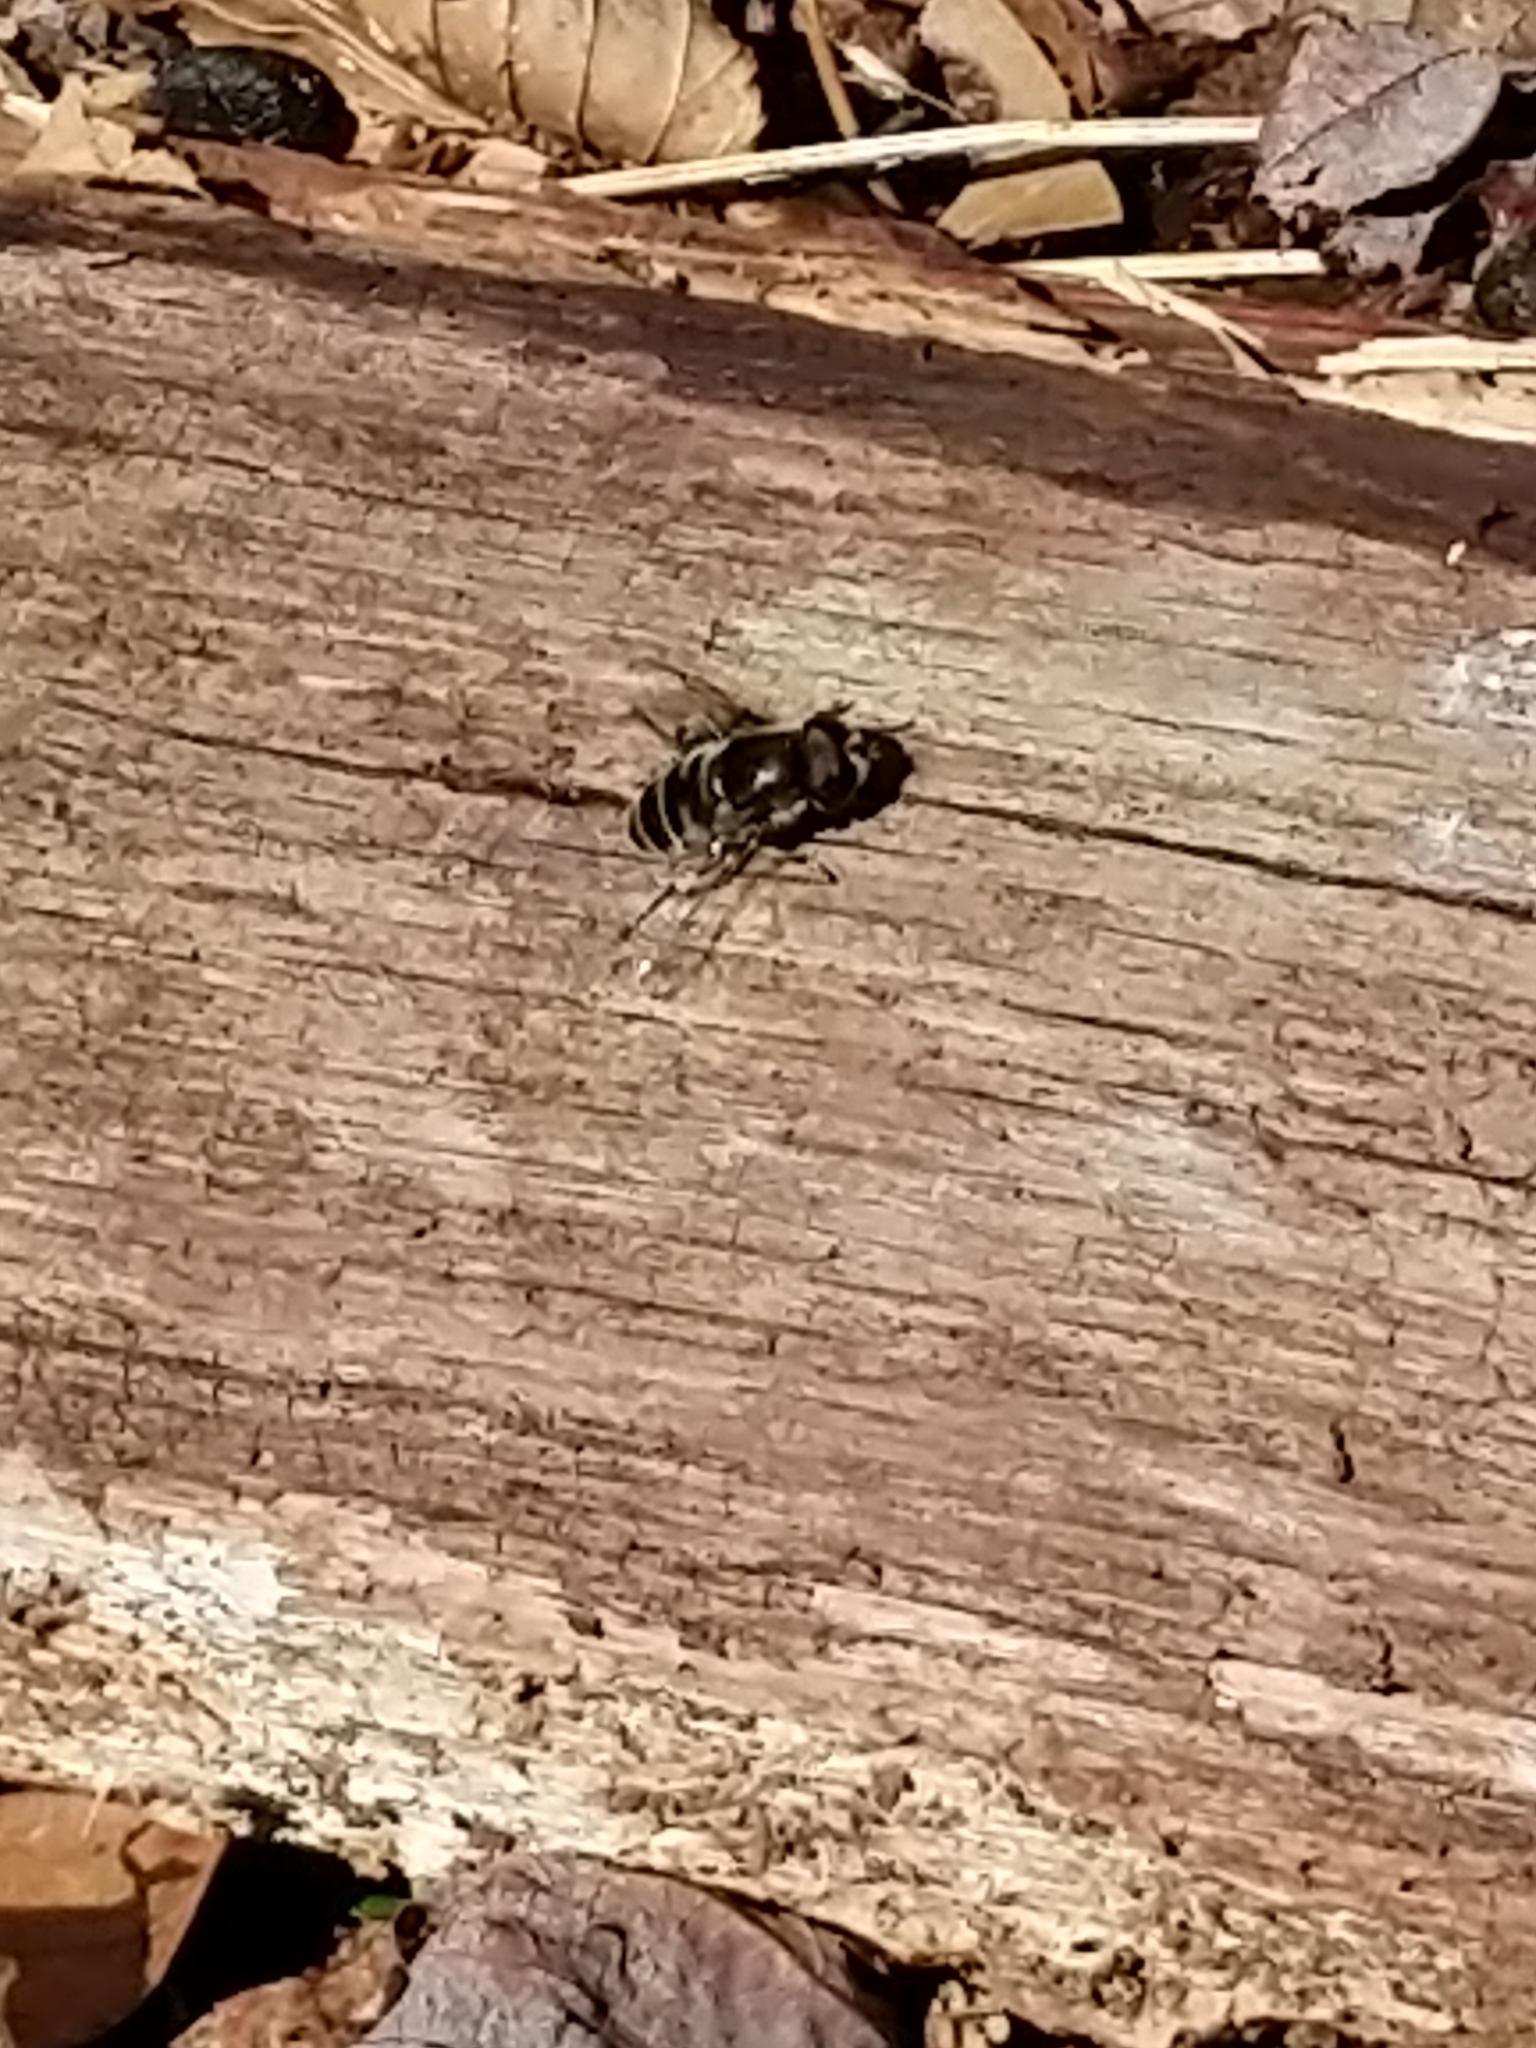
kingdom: Animalia
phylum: Arthropoda
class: Insecta
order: Diptera
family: Syrphidae
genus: Eristalis
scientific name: Eristalis dimidiata
